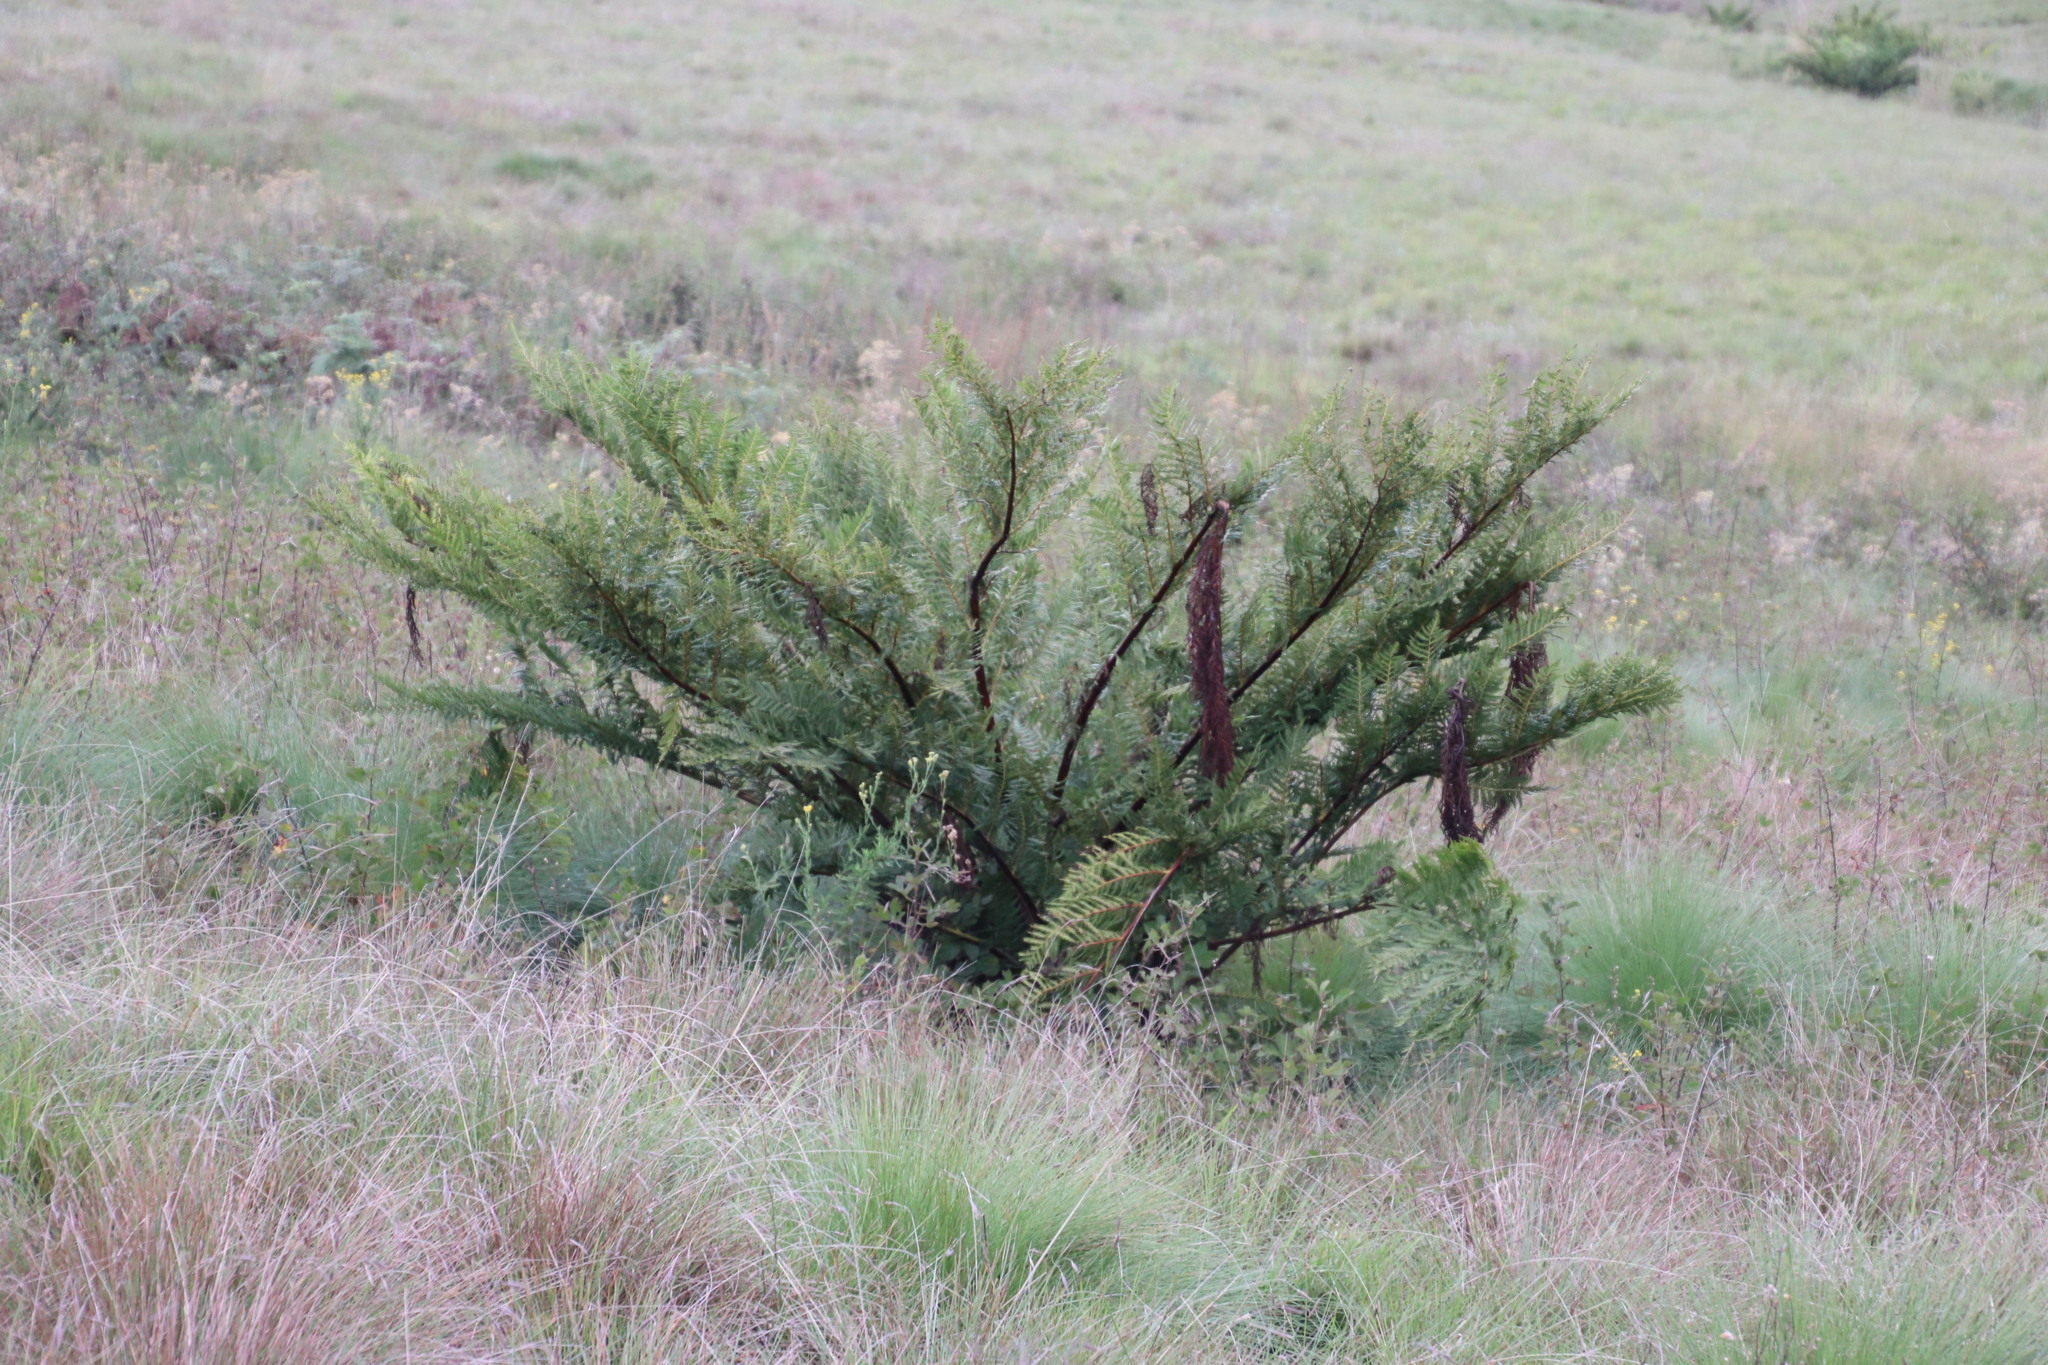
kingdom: Plantae
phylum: Tracheophyta
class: Polypodiopsida
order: Cyatheales
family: Cyatheaceae
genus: Alsophila
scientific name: Alsophila dregei
